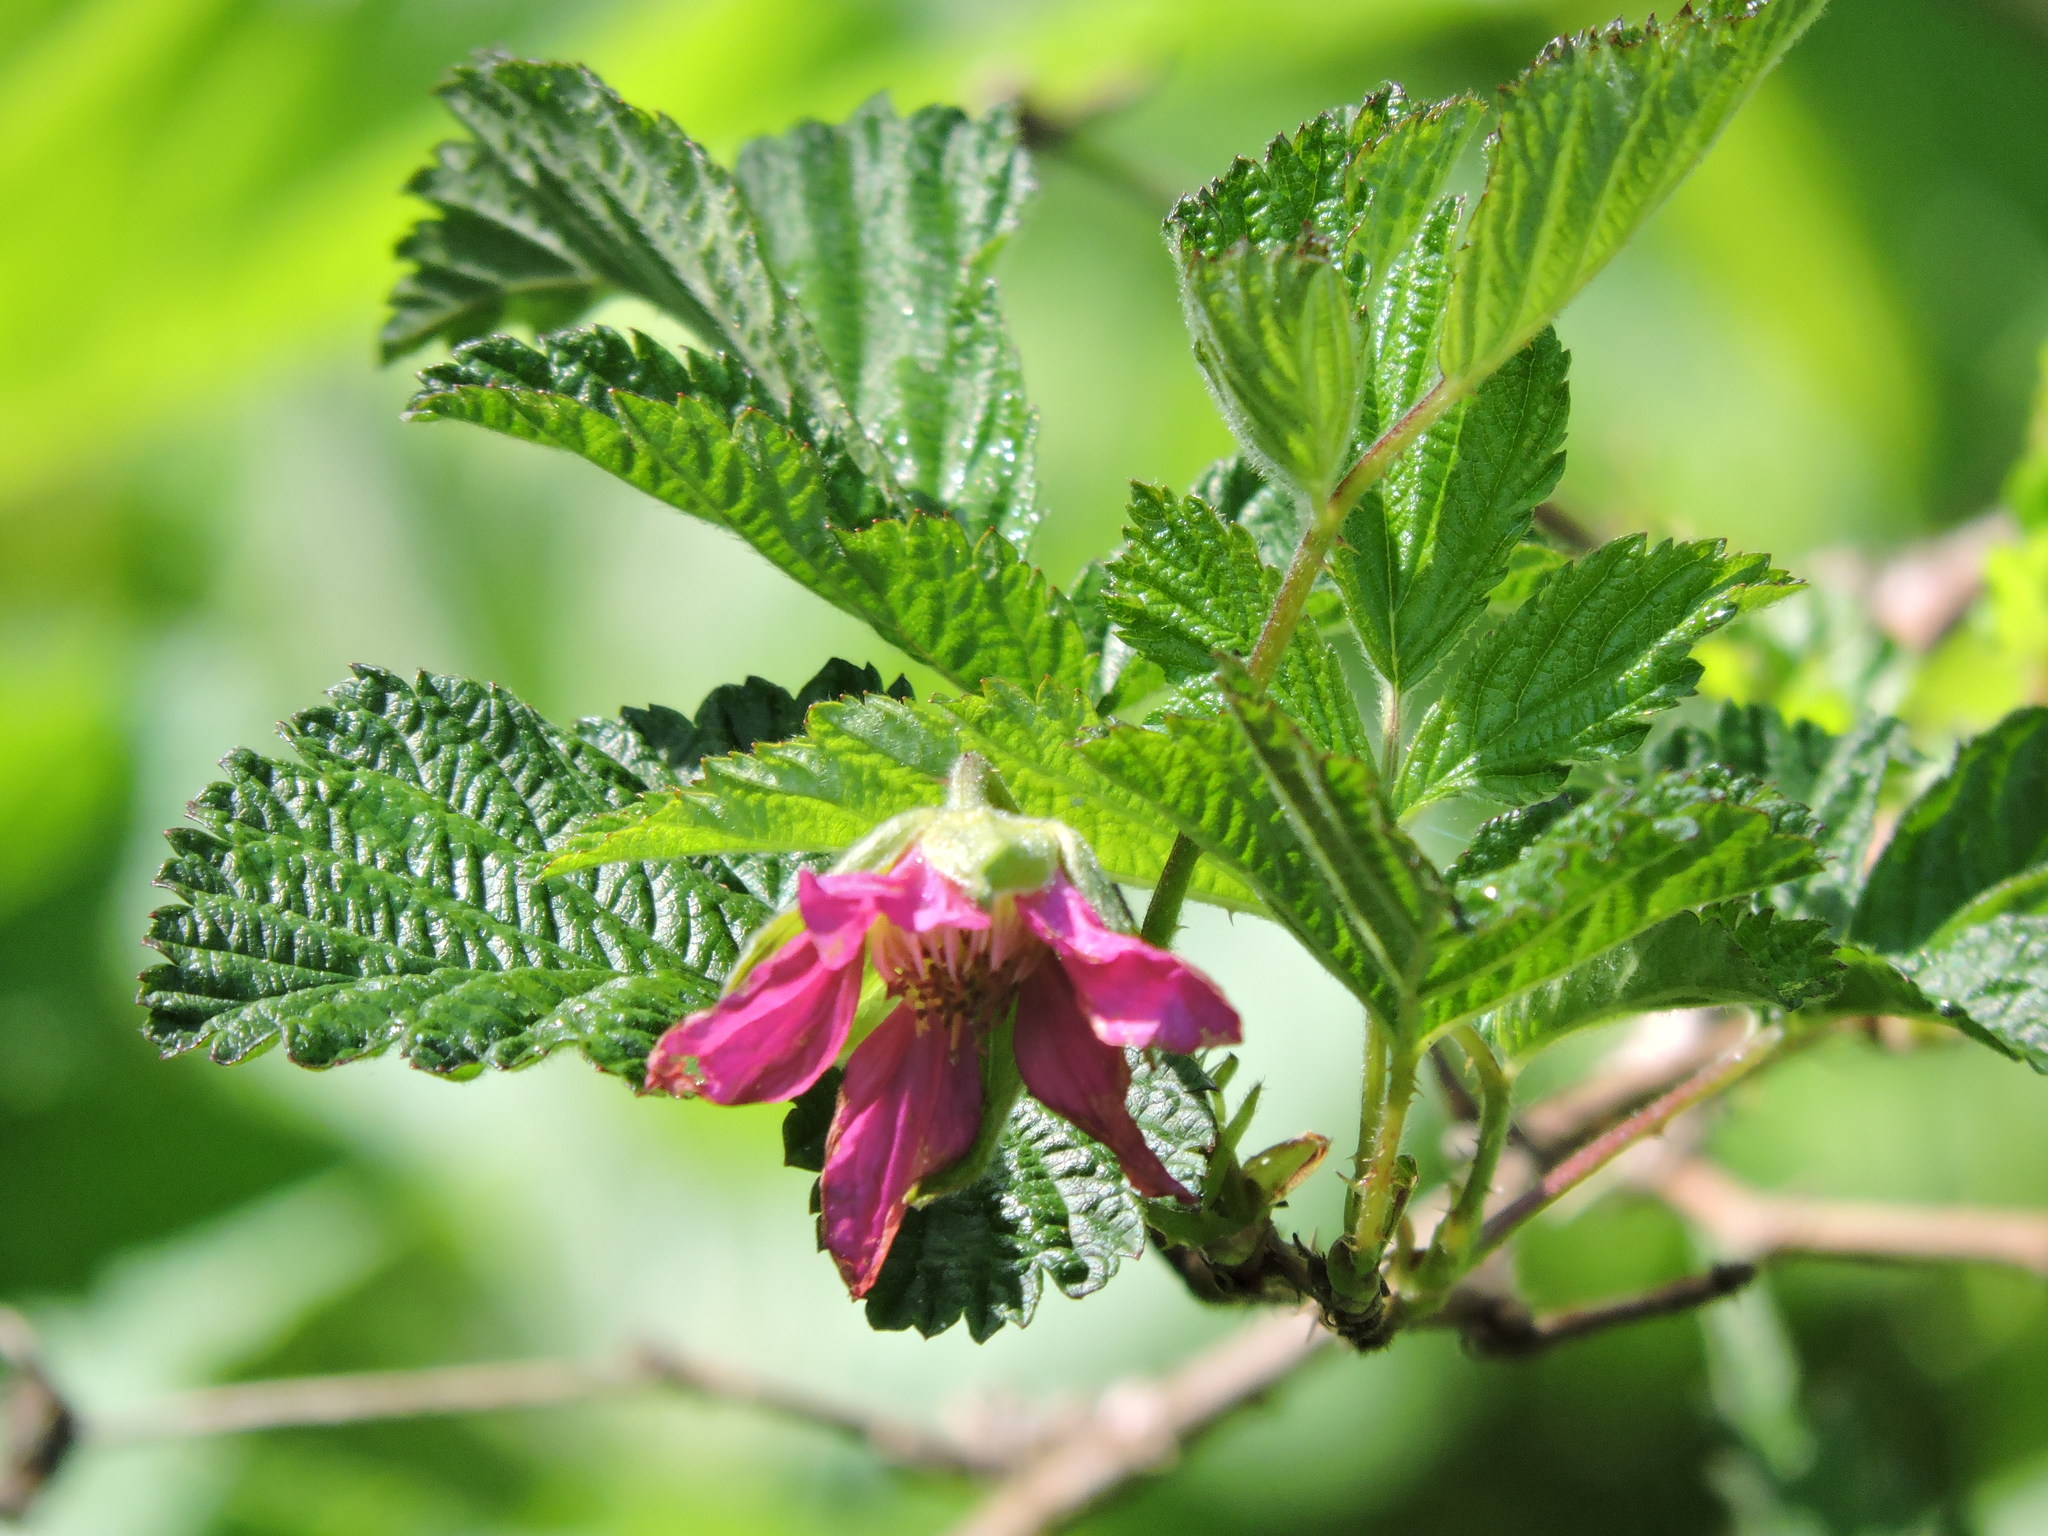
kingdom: Plantae
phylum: Tracheophyta
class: Magnoliopsida
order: Rosales
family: Rosaceae
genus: Rubus
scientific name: Rubus spectabilis
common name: Salmonberry
